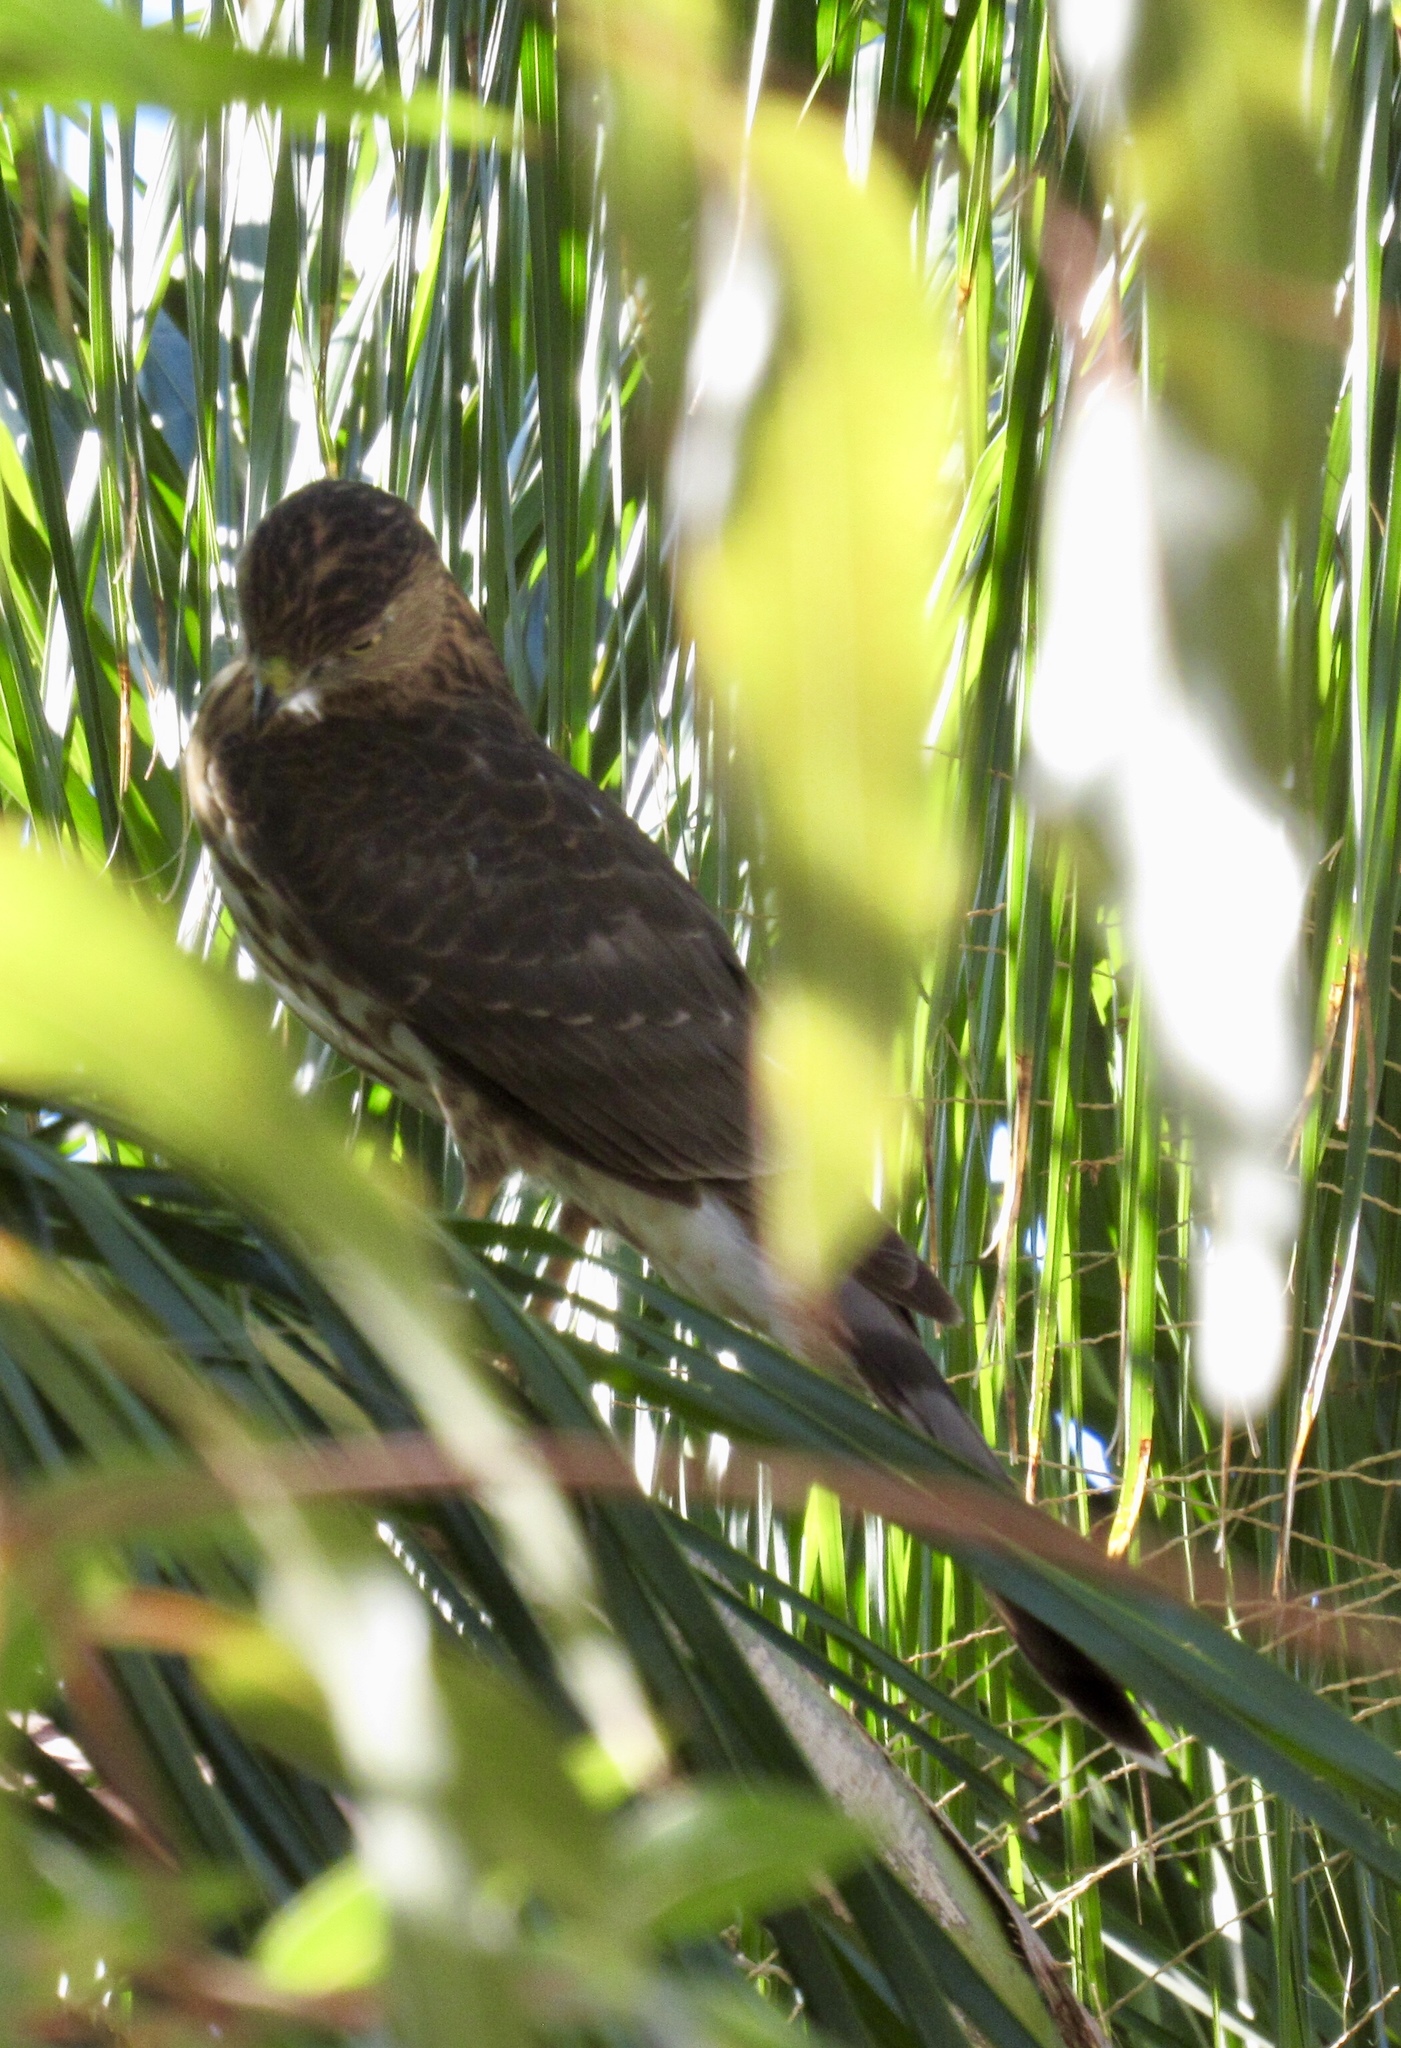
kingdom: Animalia
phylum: Chordata
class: Aves
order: Accipitriformes
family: Accipitridae
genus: Accipiter
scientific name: Accipiter cooperii
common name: Cooper's hawk
